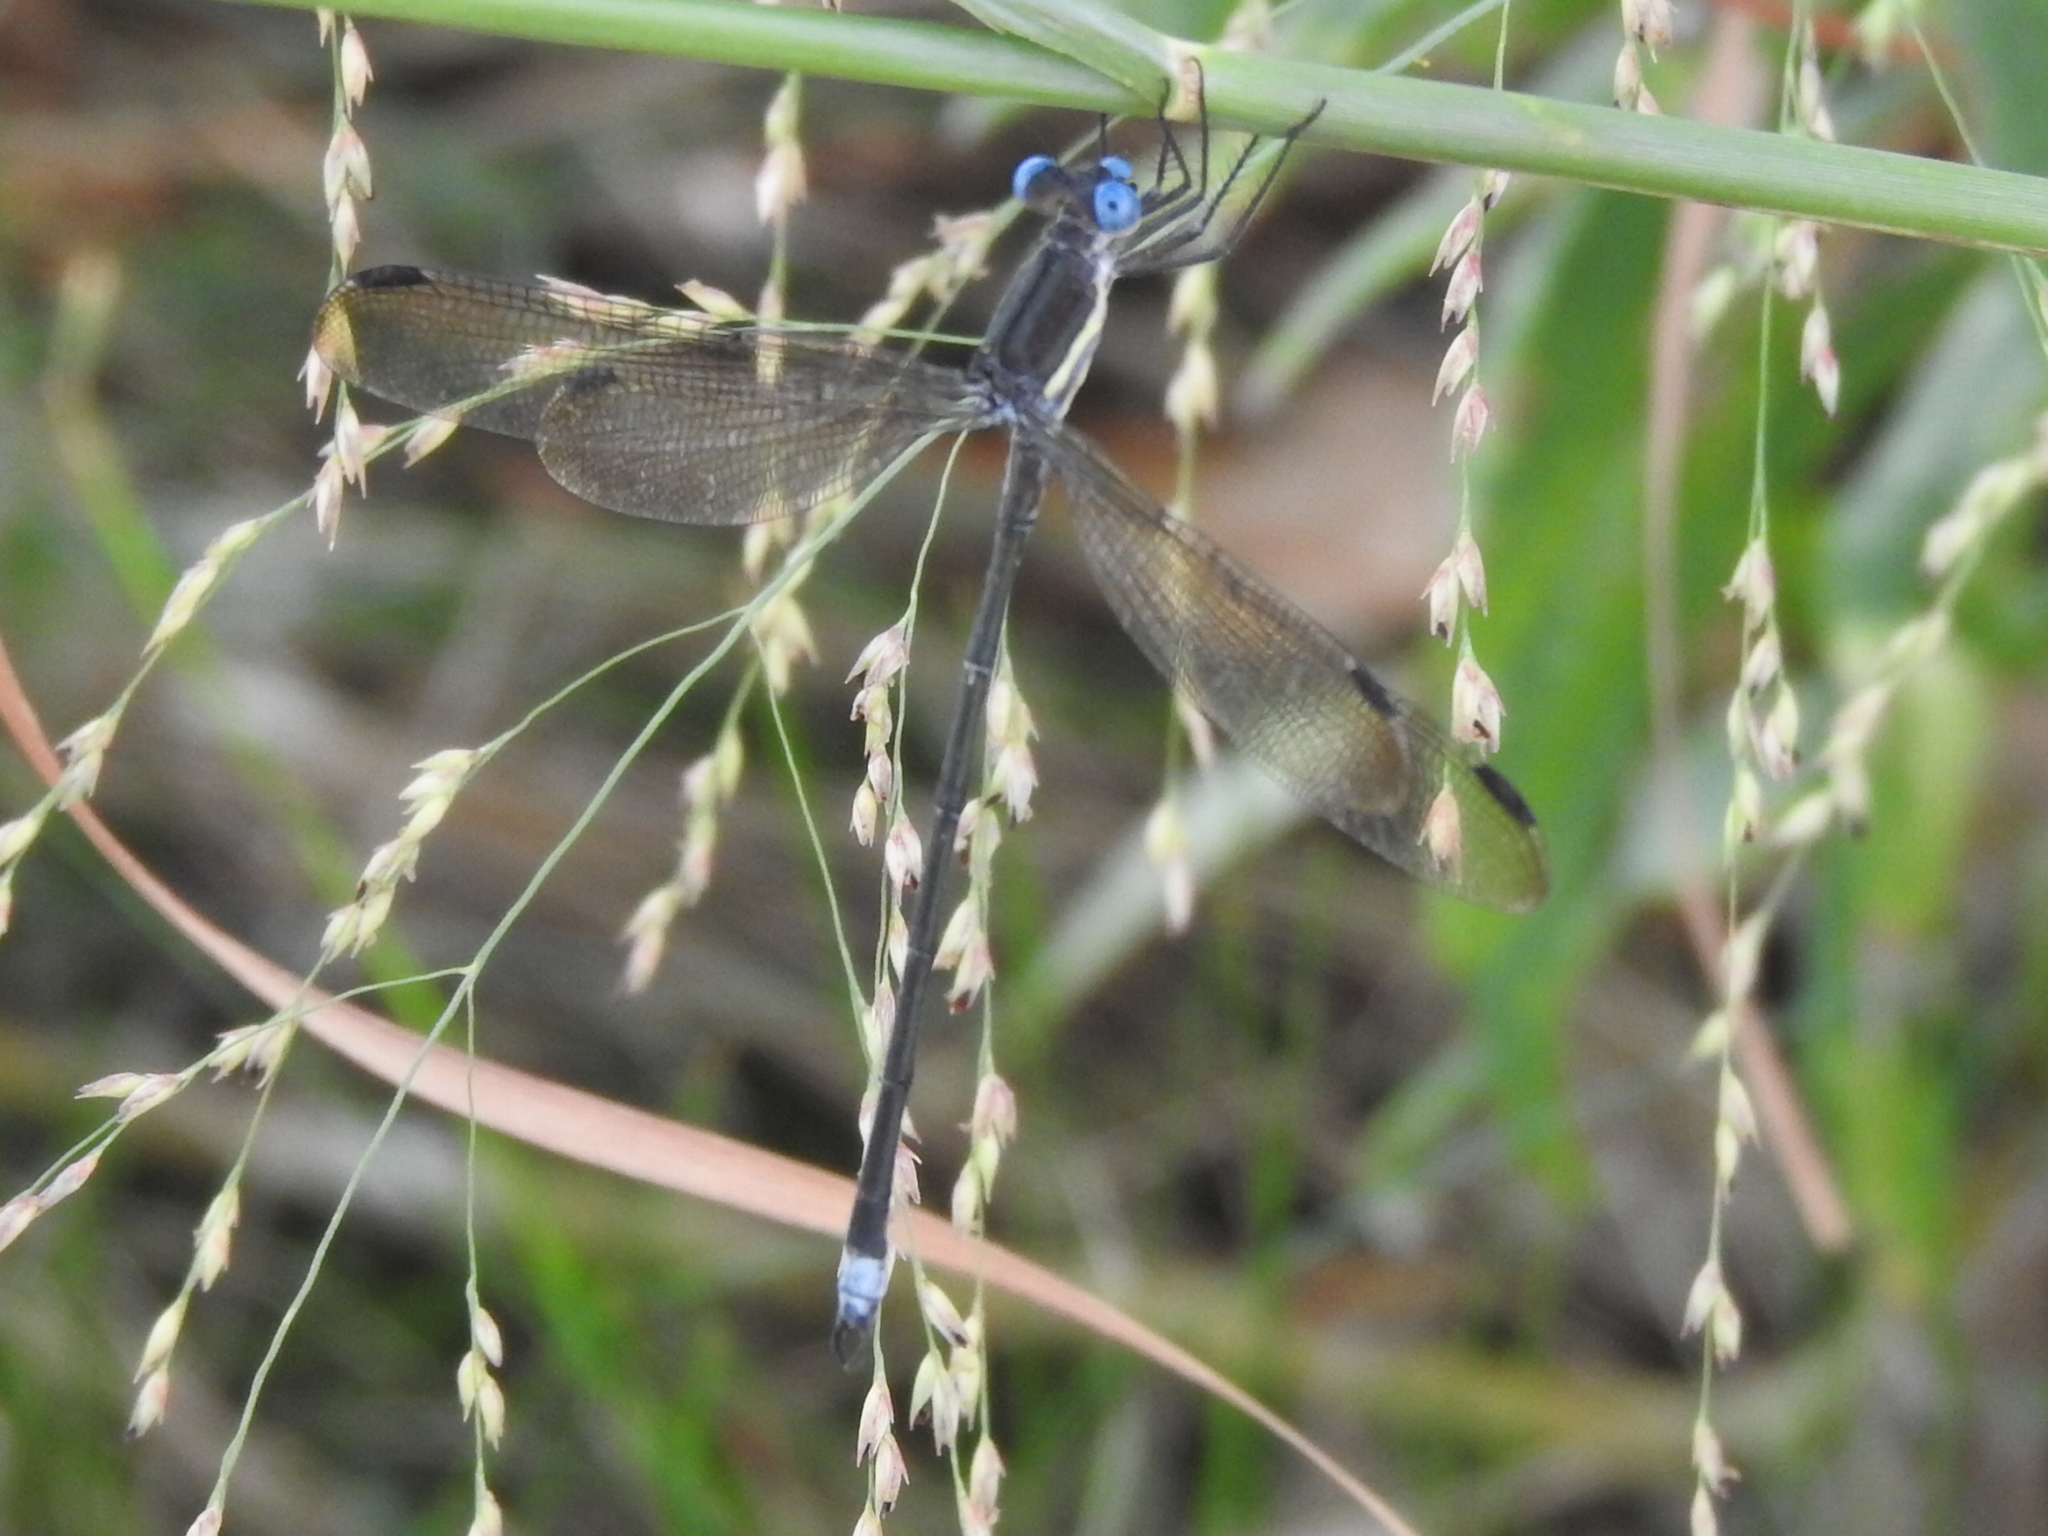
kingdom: Animalia
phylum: Arthropoda
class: Insecta
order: Odonata
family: Lestidae
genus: Archilestes
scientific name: Archilestes grandis
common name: Great spreadwing
